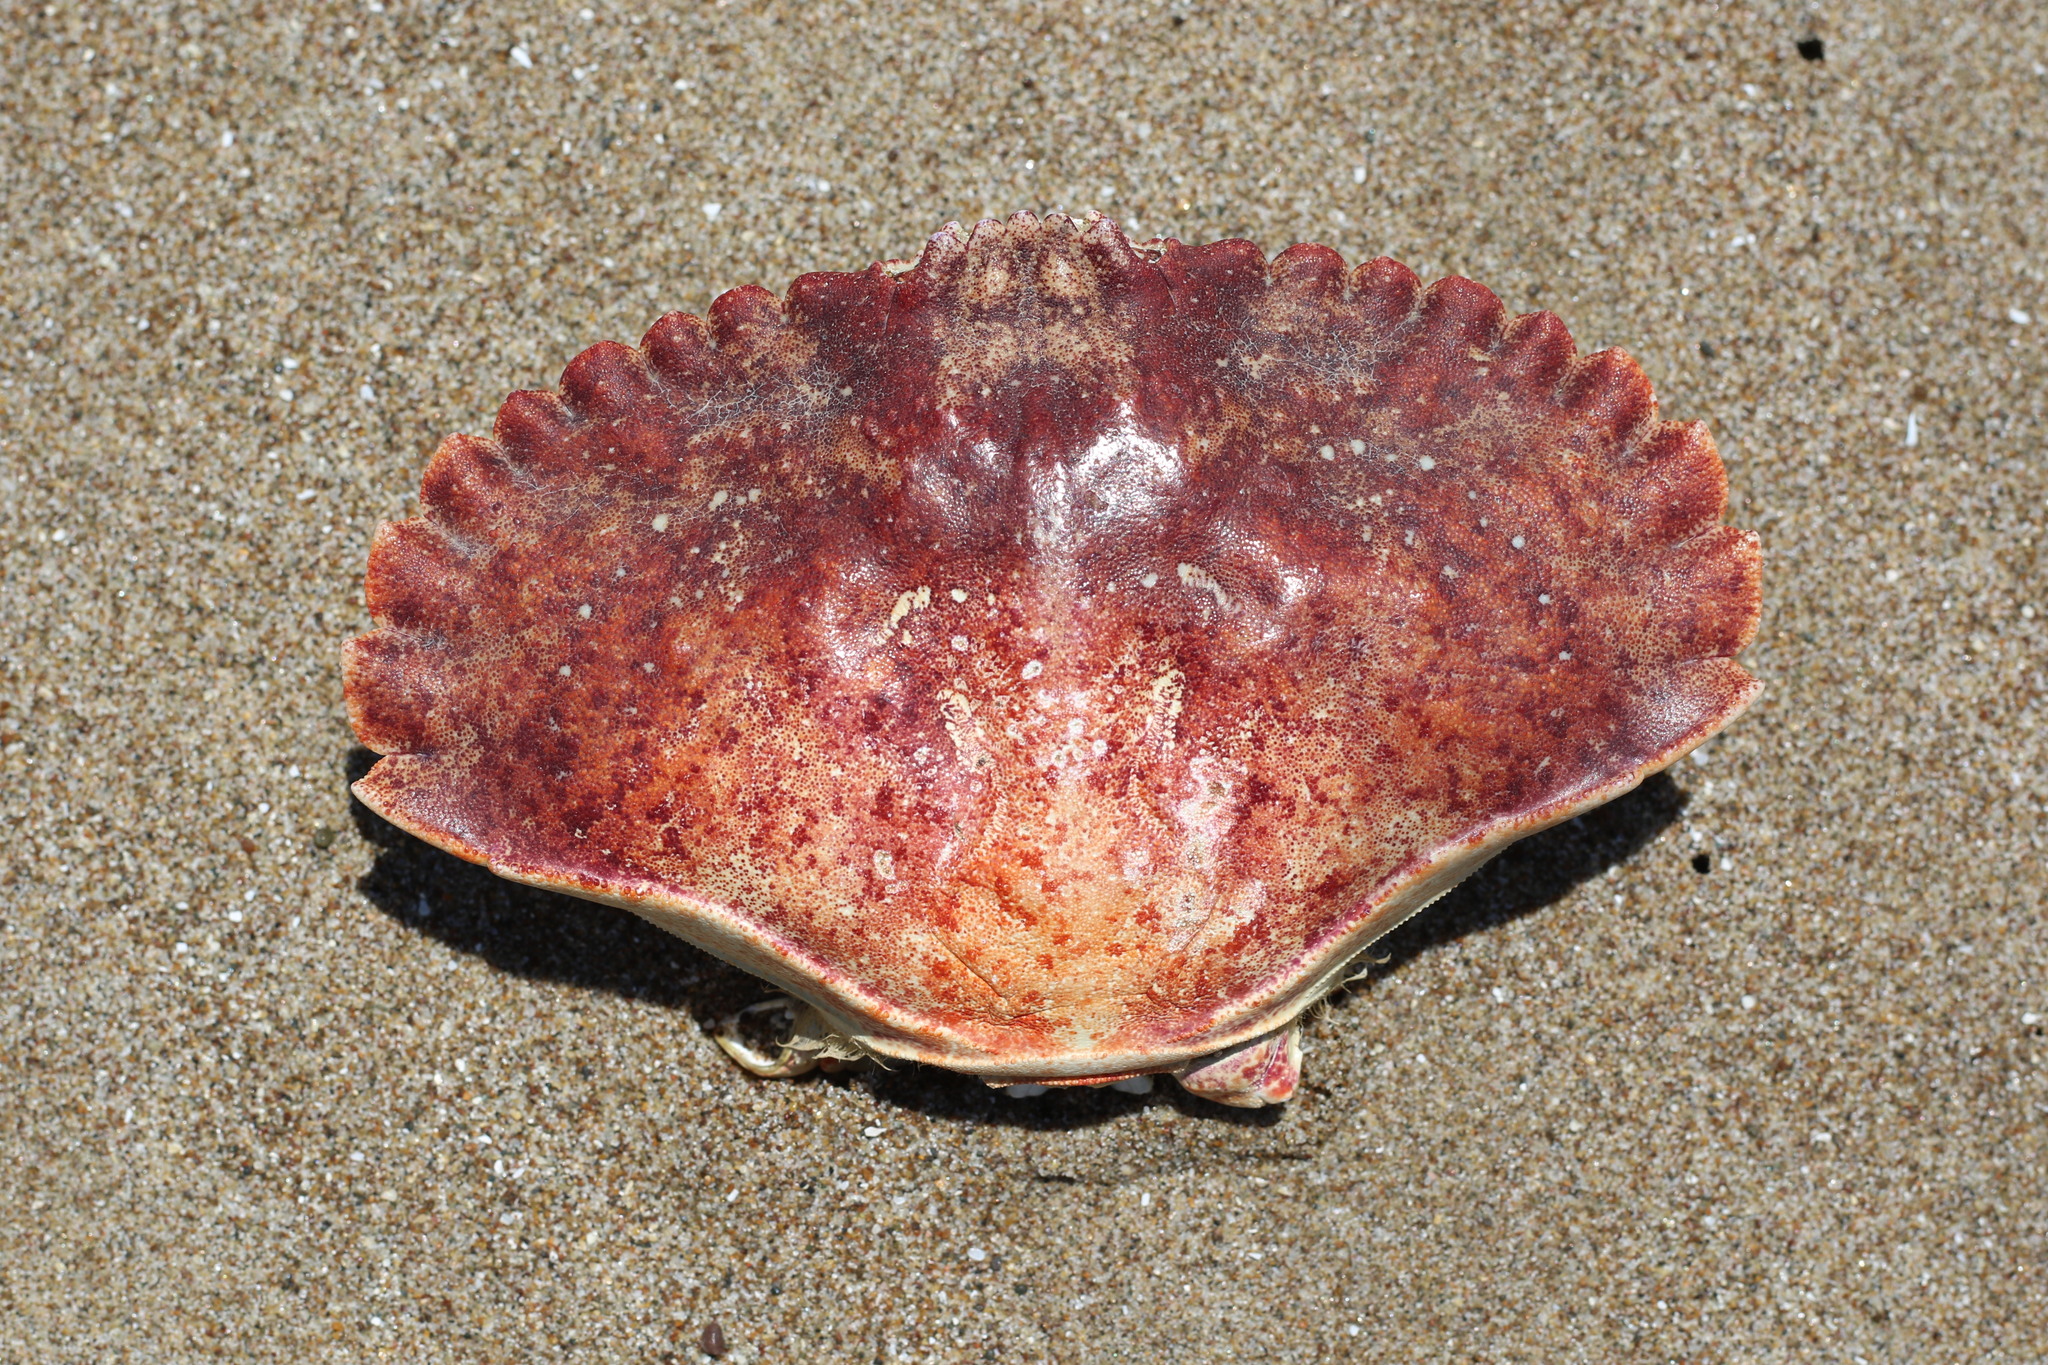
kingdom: Animalia
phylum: Arthropoda
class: Malacostraca
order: Decapoda
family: Cancridae
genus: Cancer
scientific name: Cancer productus
